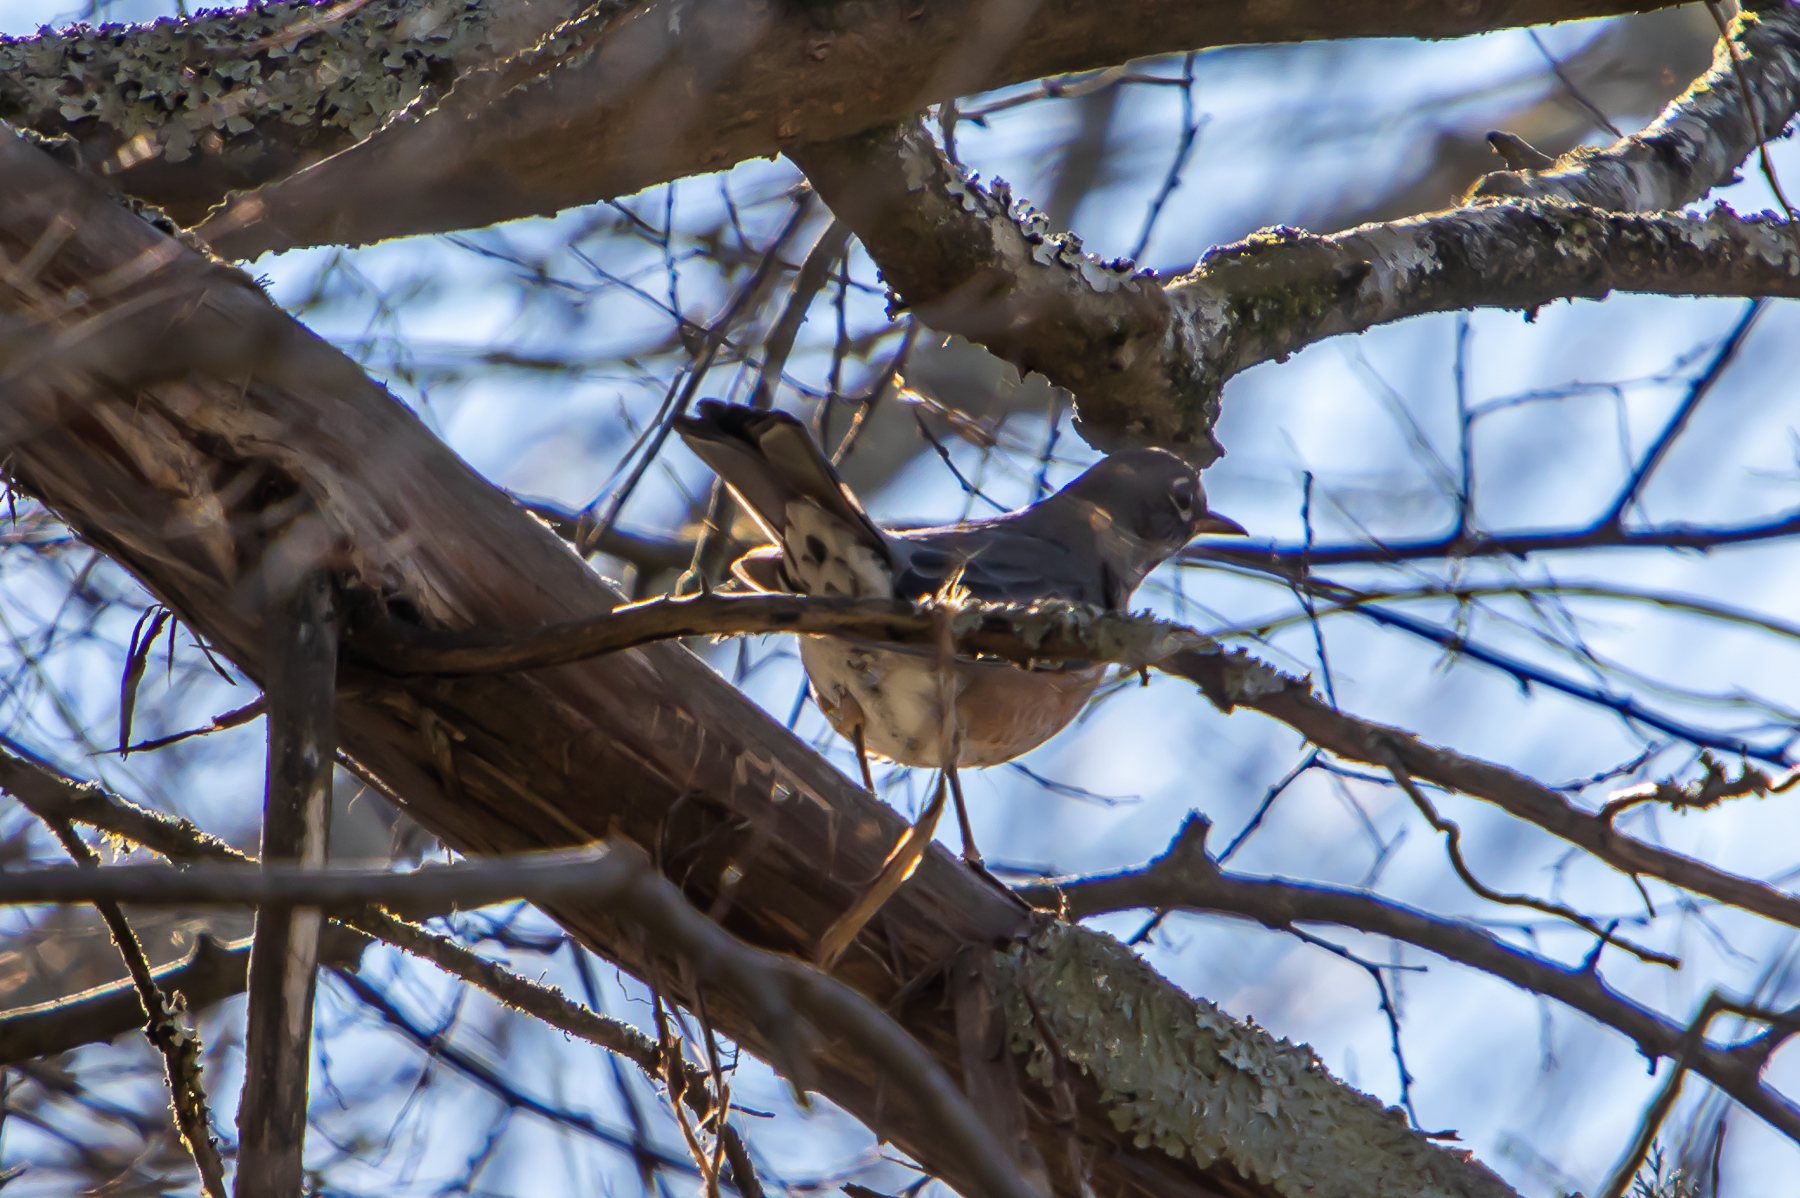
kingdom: Animalia
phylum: Chordata
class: Aves
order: Passeriformes
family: Turdidae
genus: Turdus
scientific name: Turdus migratorius
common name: American robin
